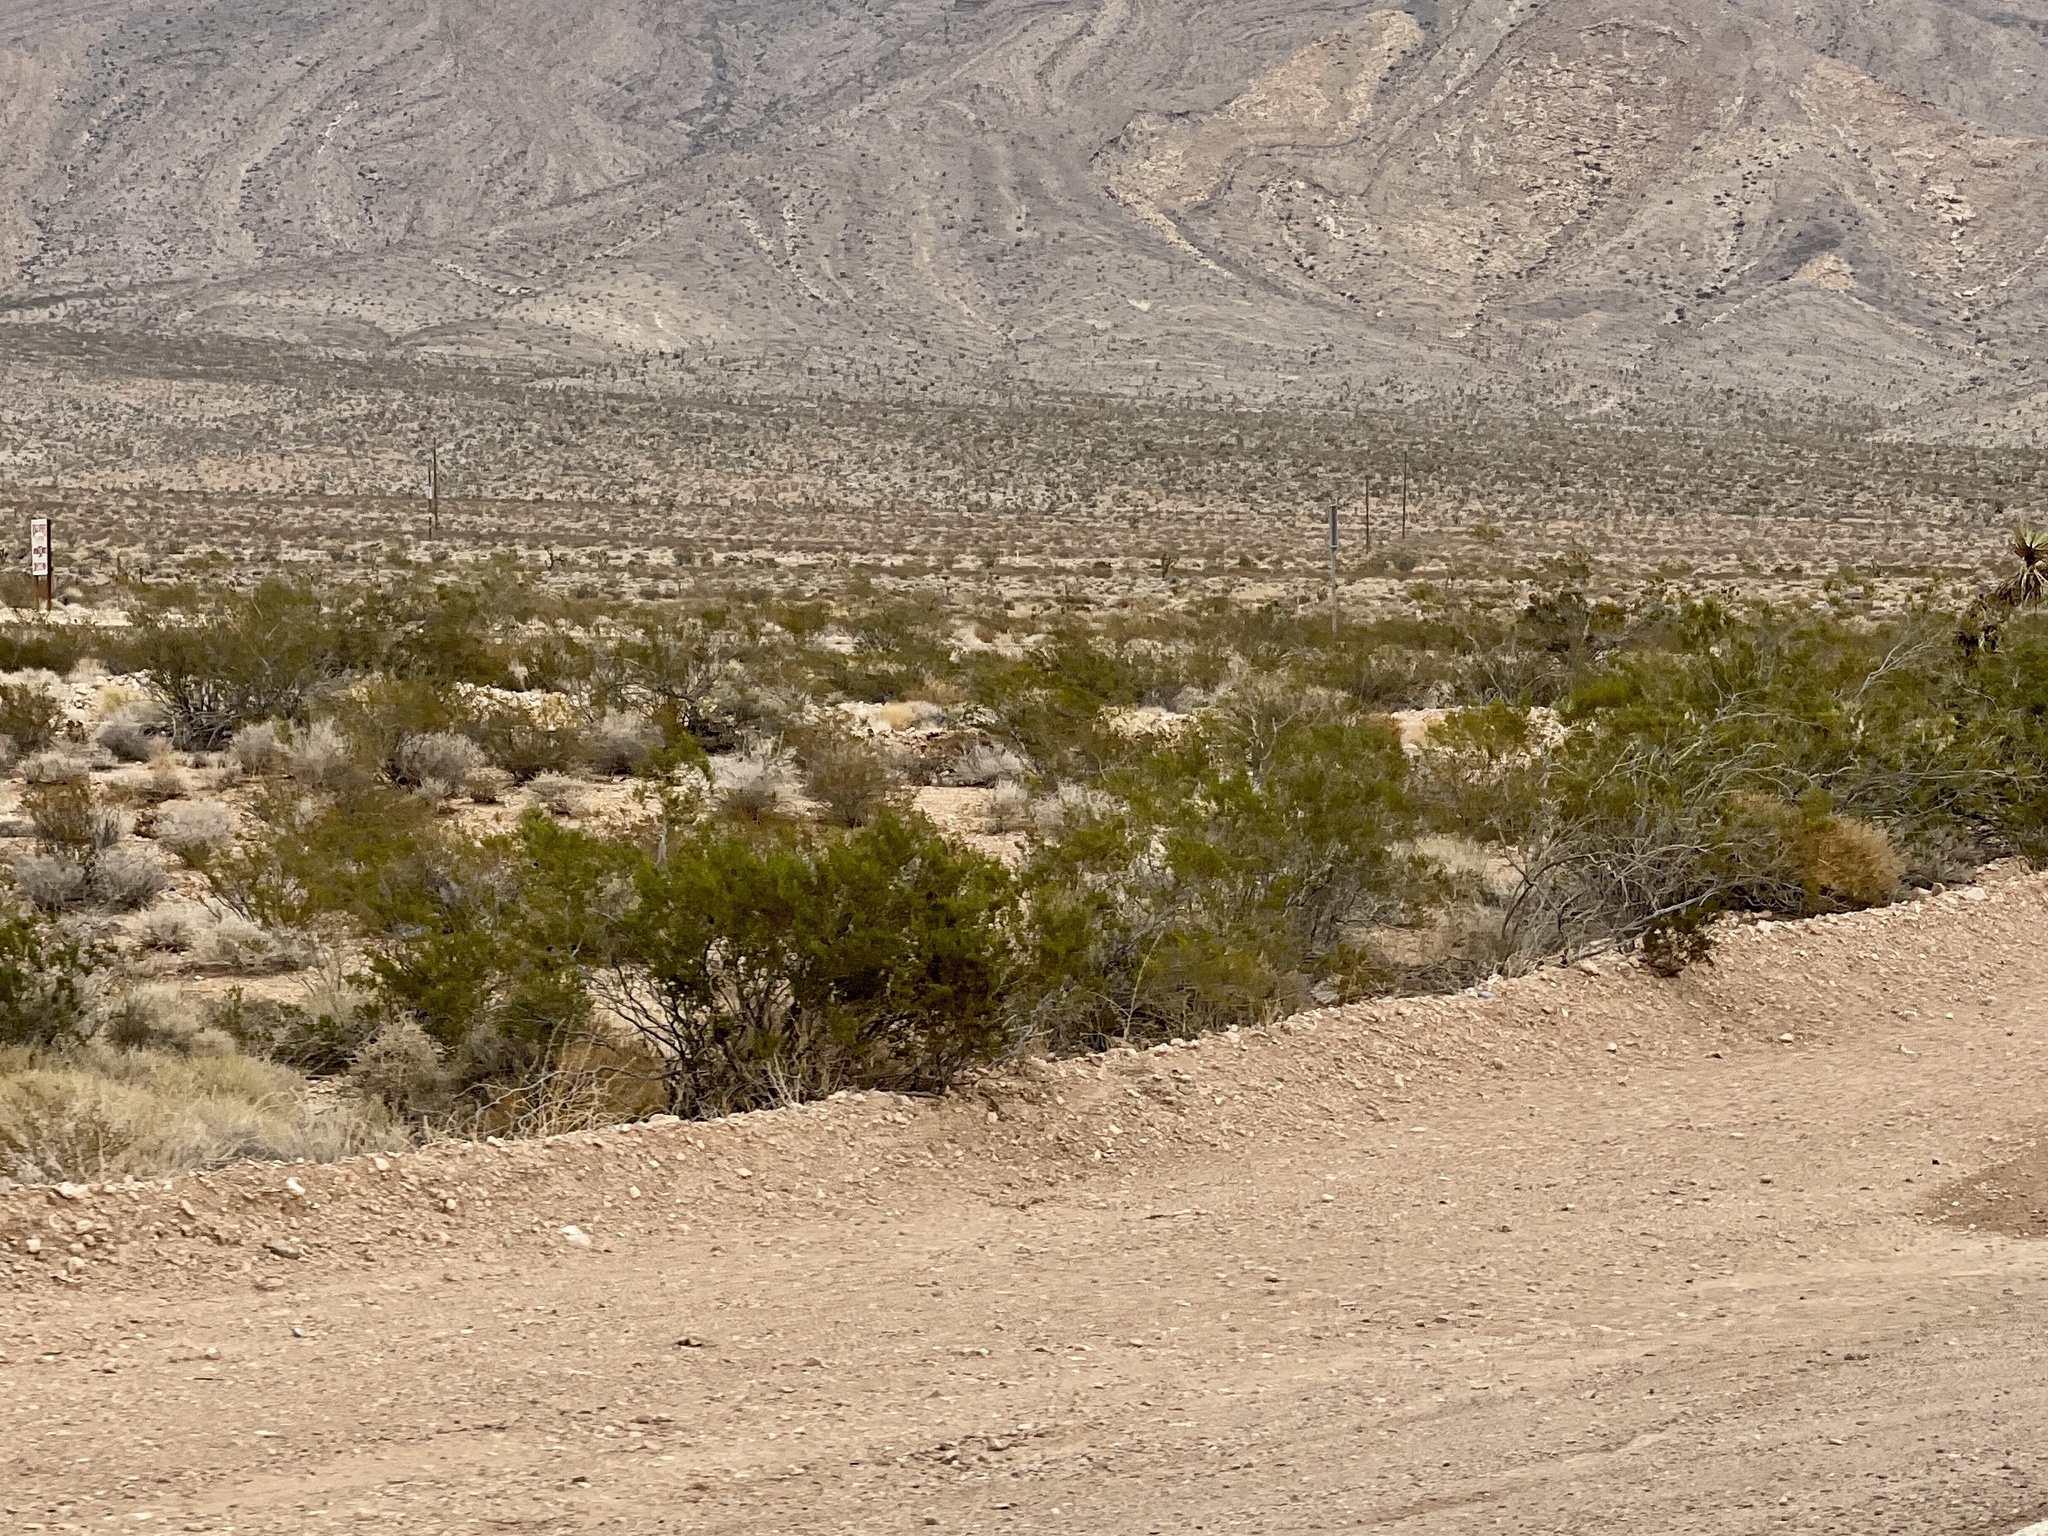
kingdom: Plantae
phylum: Tracheophyta
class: Magnoliopsida
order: Zygophyllales
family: Zygophyllaceae
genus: Larrea
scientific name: Larrea tridentata
